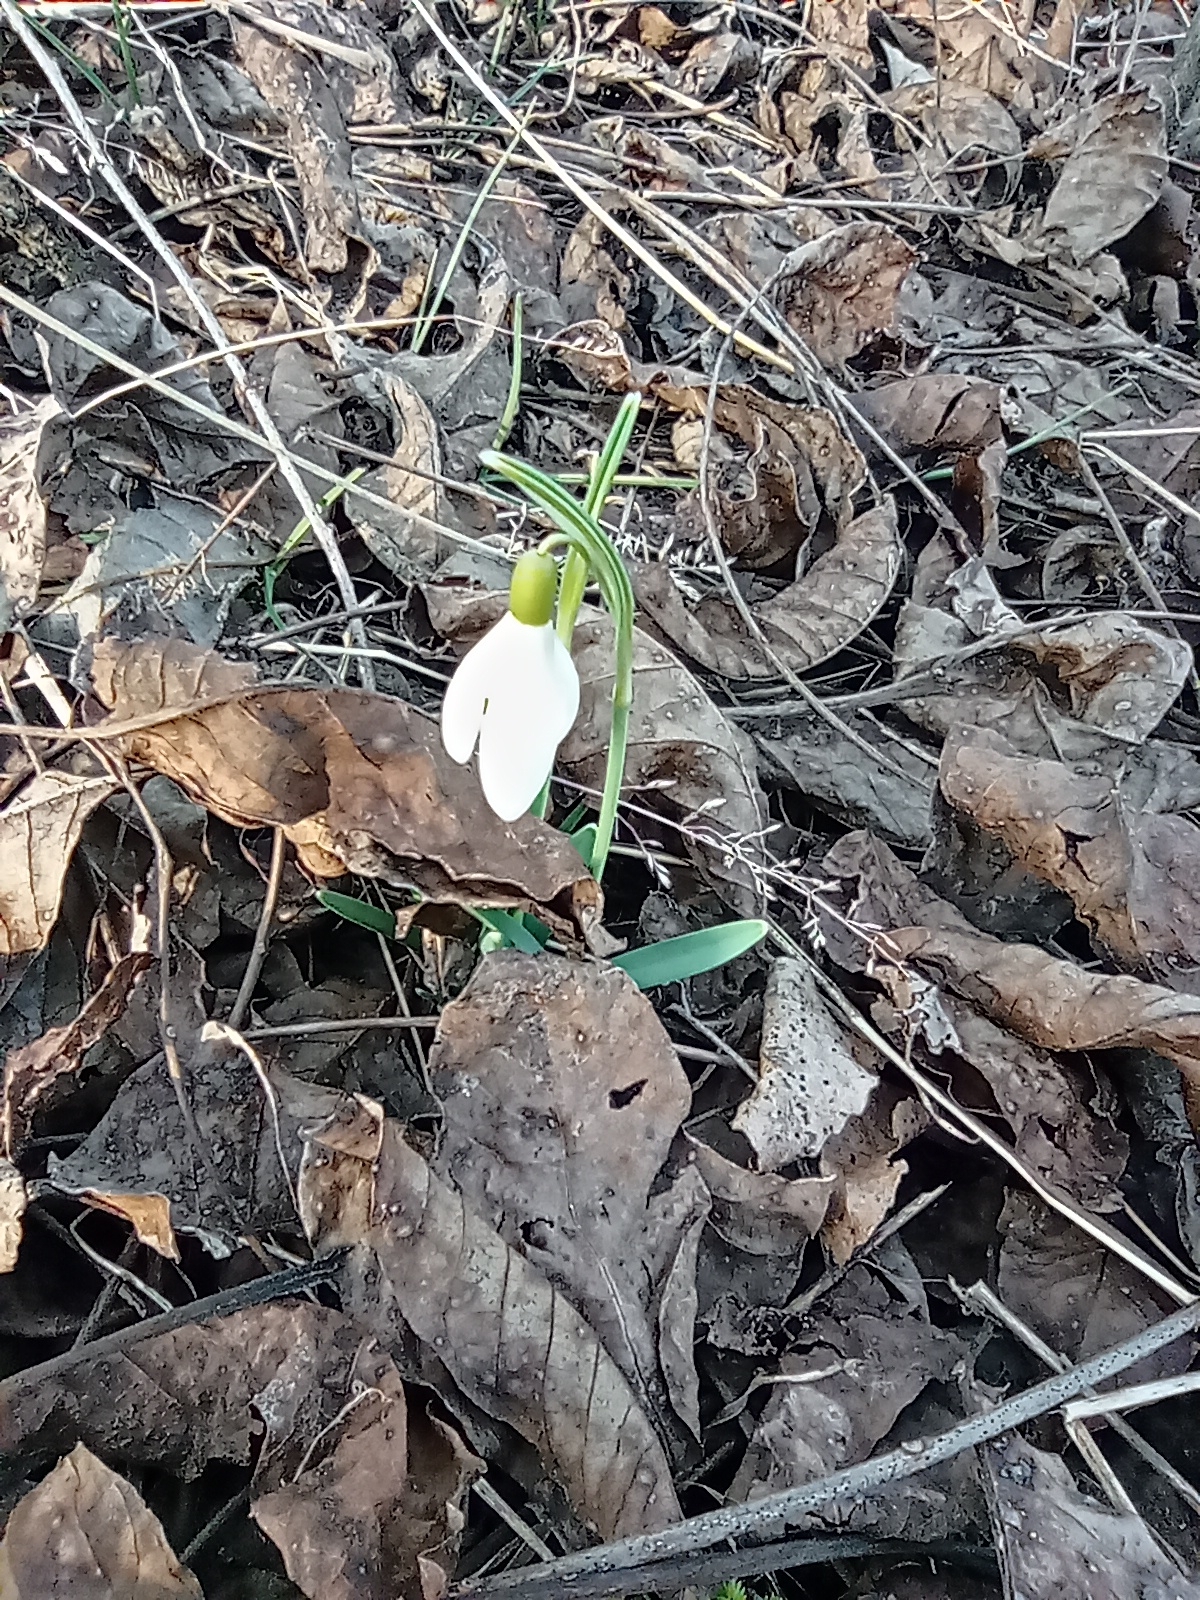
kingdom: Plantae
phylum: Tracheophyta
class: Liliopsida
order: Asparagales
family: Amaryllidaceae
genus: Galanthus
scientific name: Galanthus nivalis
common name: Snowdrop
